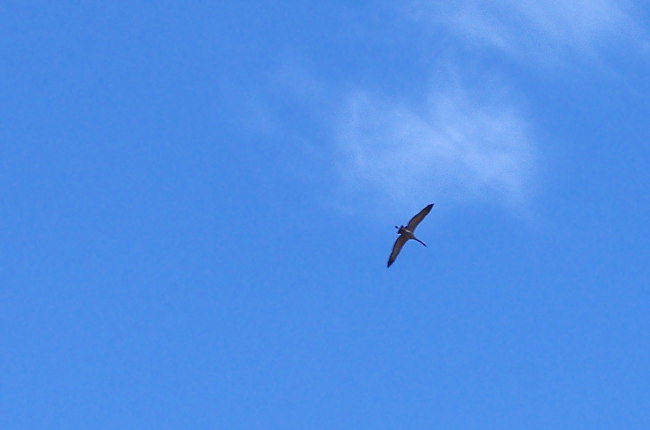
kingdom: Animalia
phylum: Chordata
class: Aves
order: Gruiformes
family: Gruidae
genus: Grus
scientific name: Grus grus
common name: Common crane
